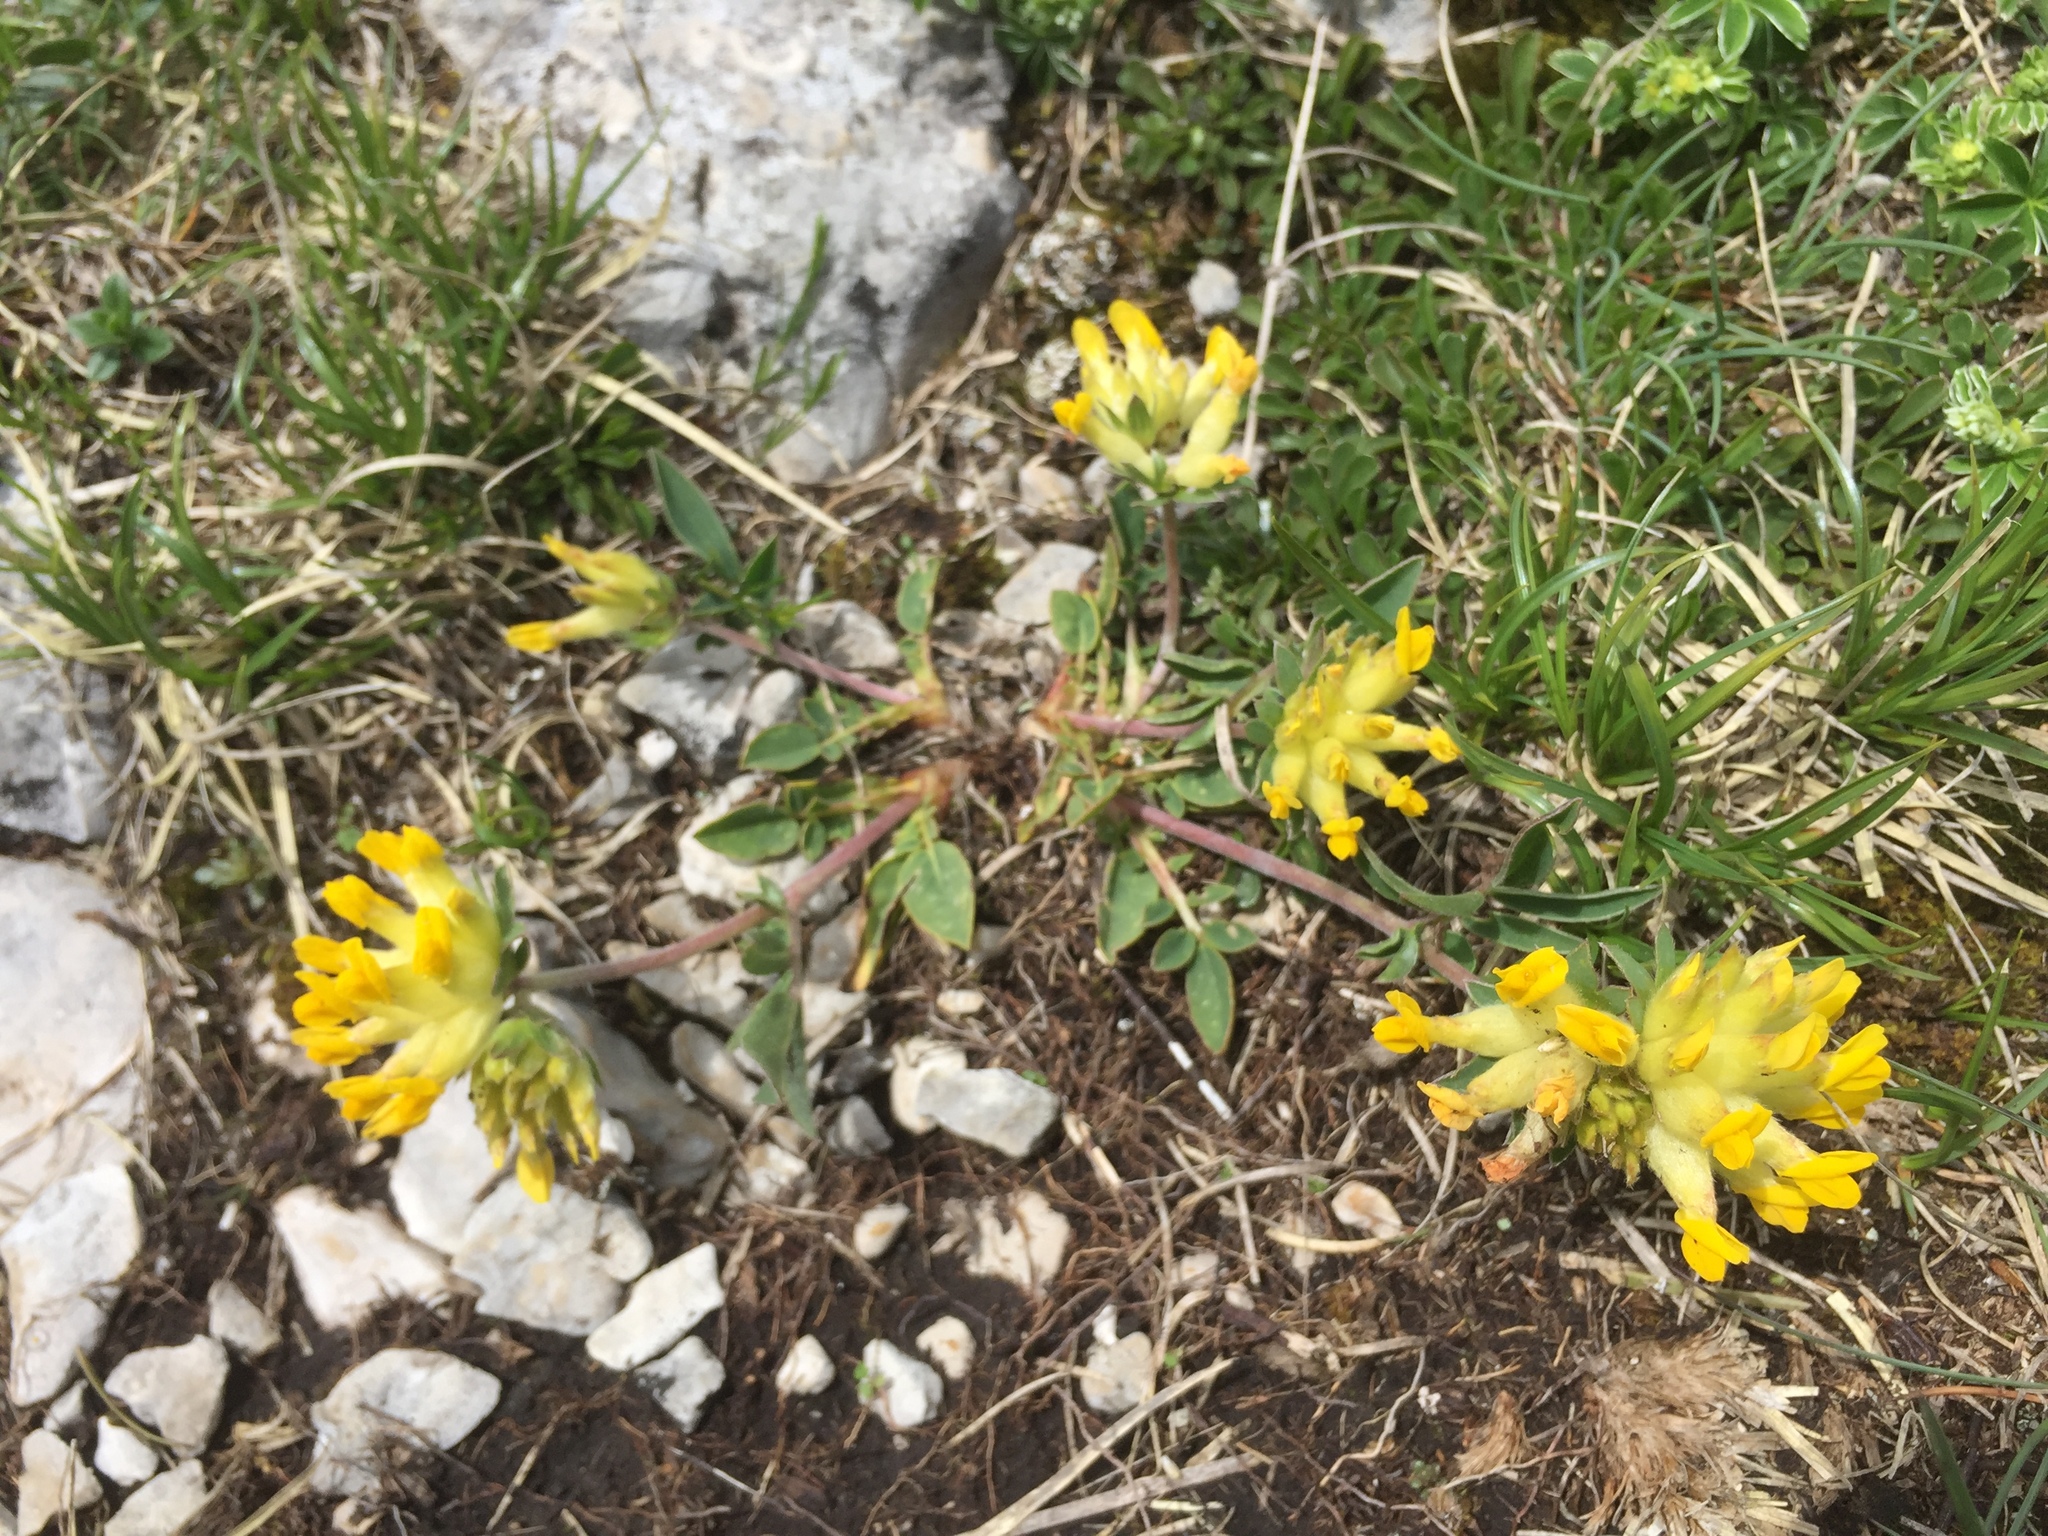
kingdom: Plantae
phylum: Tracheophyta
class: Magnoliopsida
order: Fabales
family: Fabaceae
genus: Anthyllis
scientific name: Anthyllis vulneraria
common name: Kidney vetch
